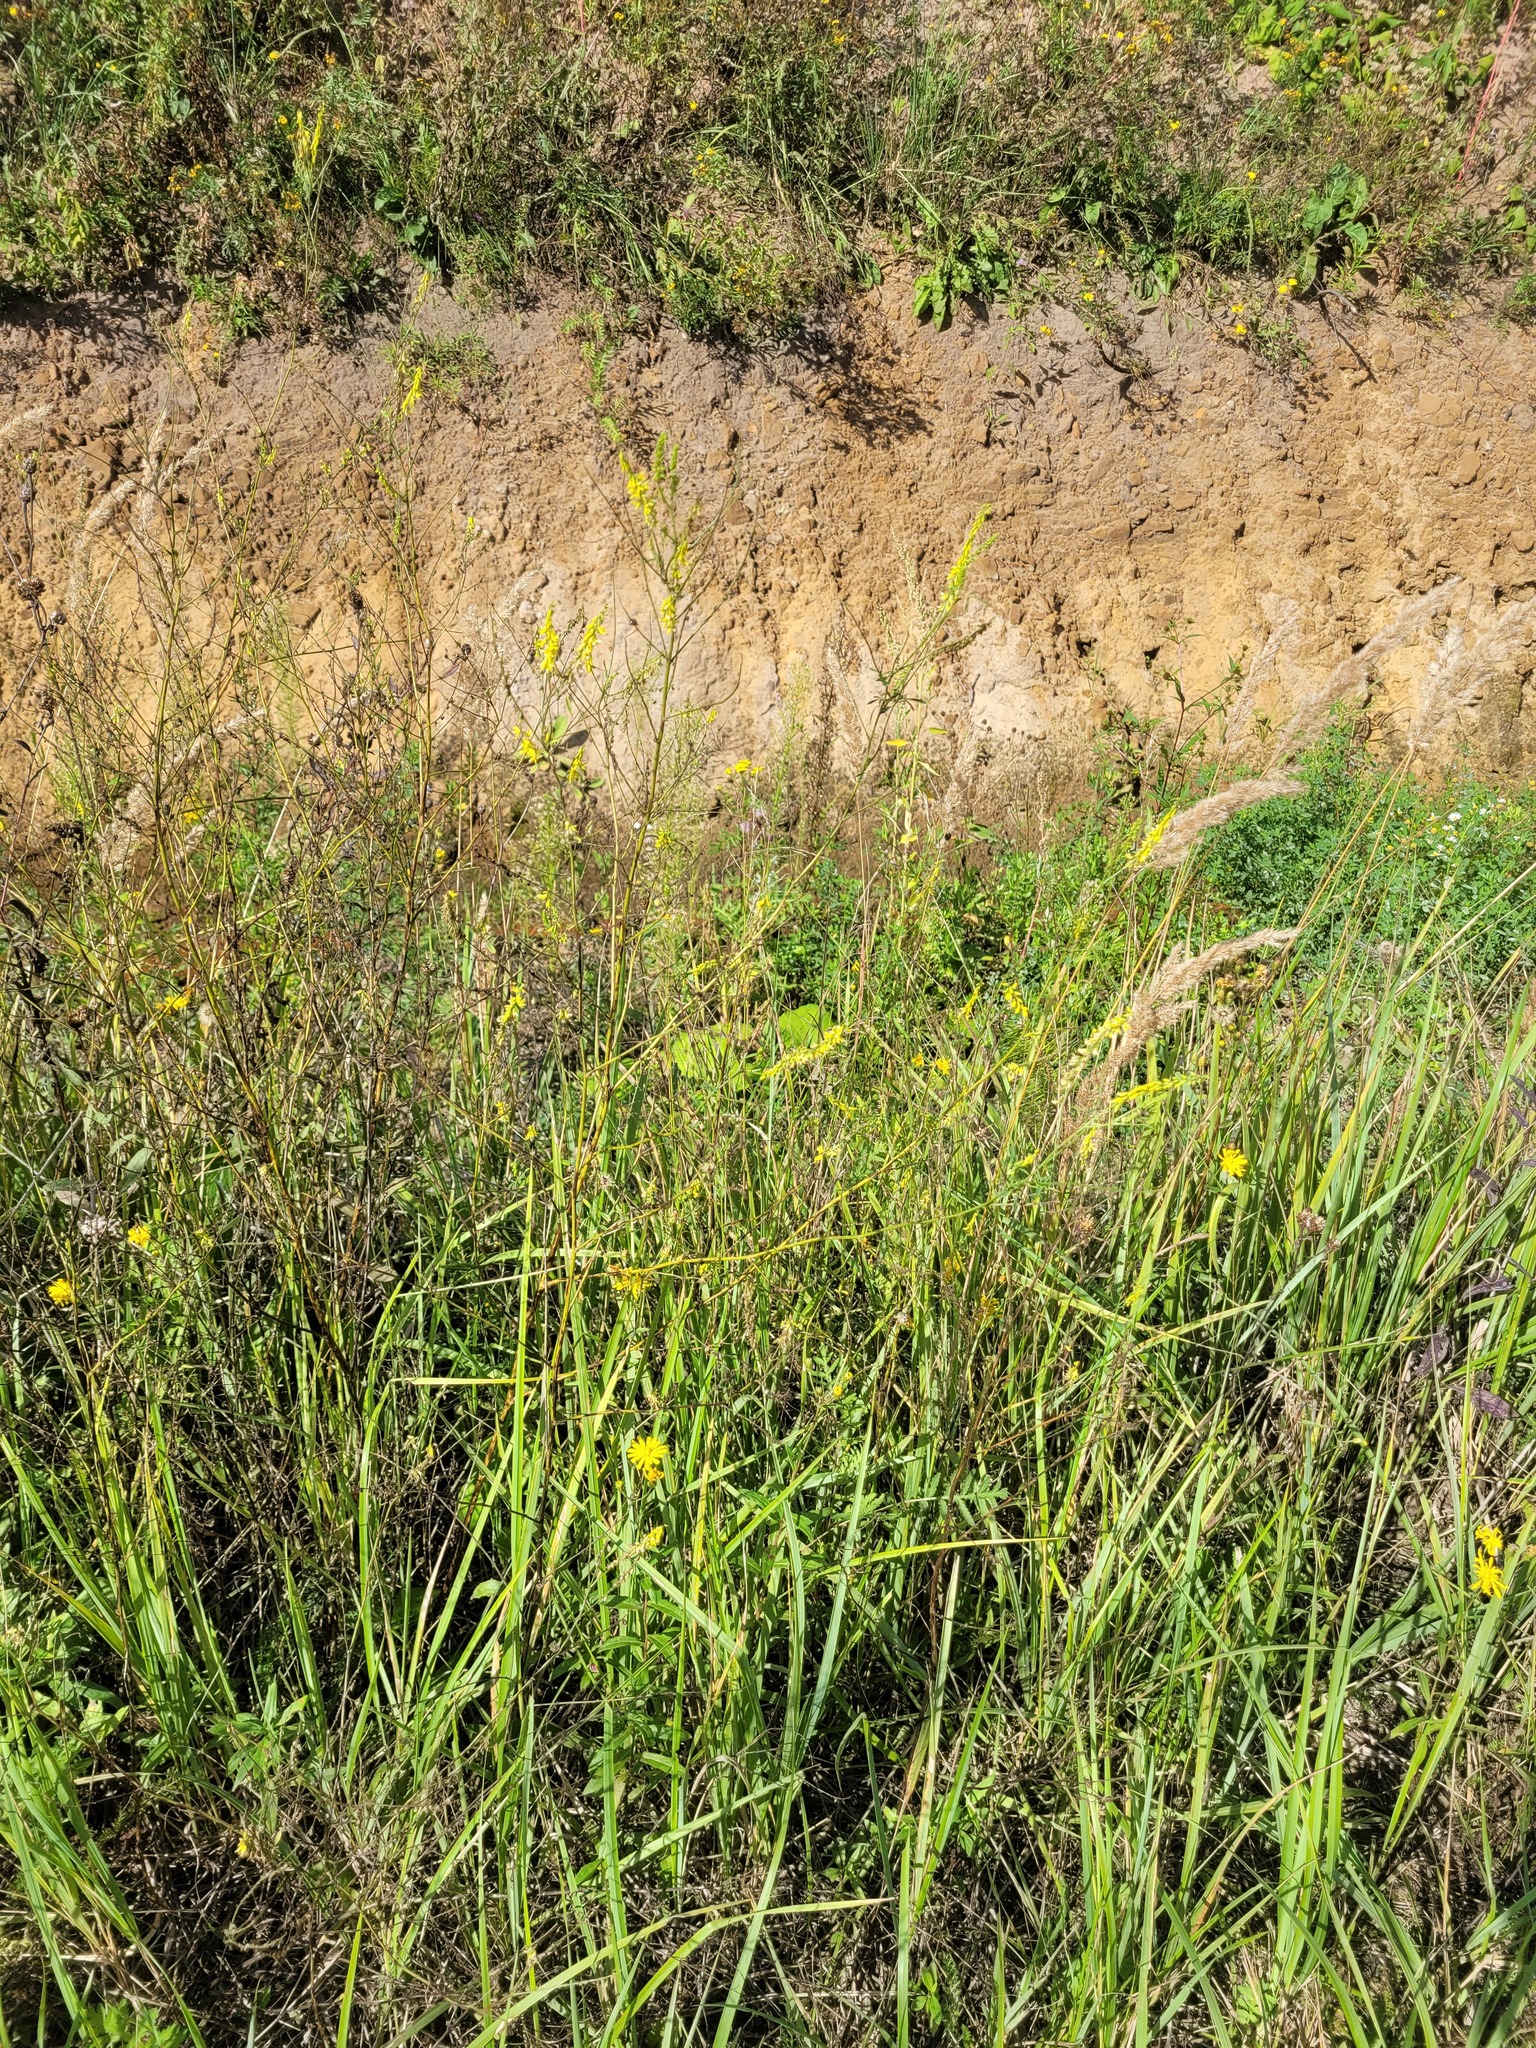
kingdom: Plantae
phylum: Tracheophyta
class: Magnoliopsida
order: Fabales
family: Fabaceae
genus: Melilotus
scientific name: Melilotus officinalis
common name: Sweetclover
